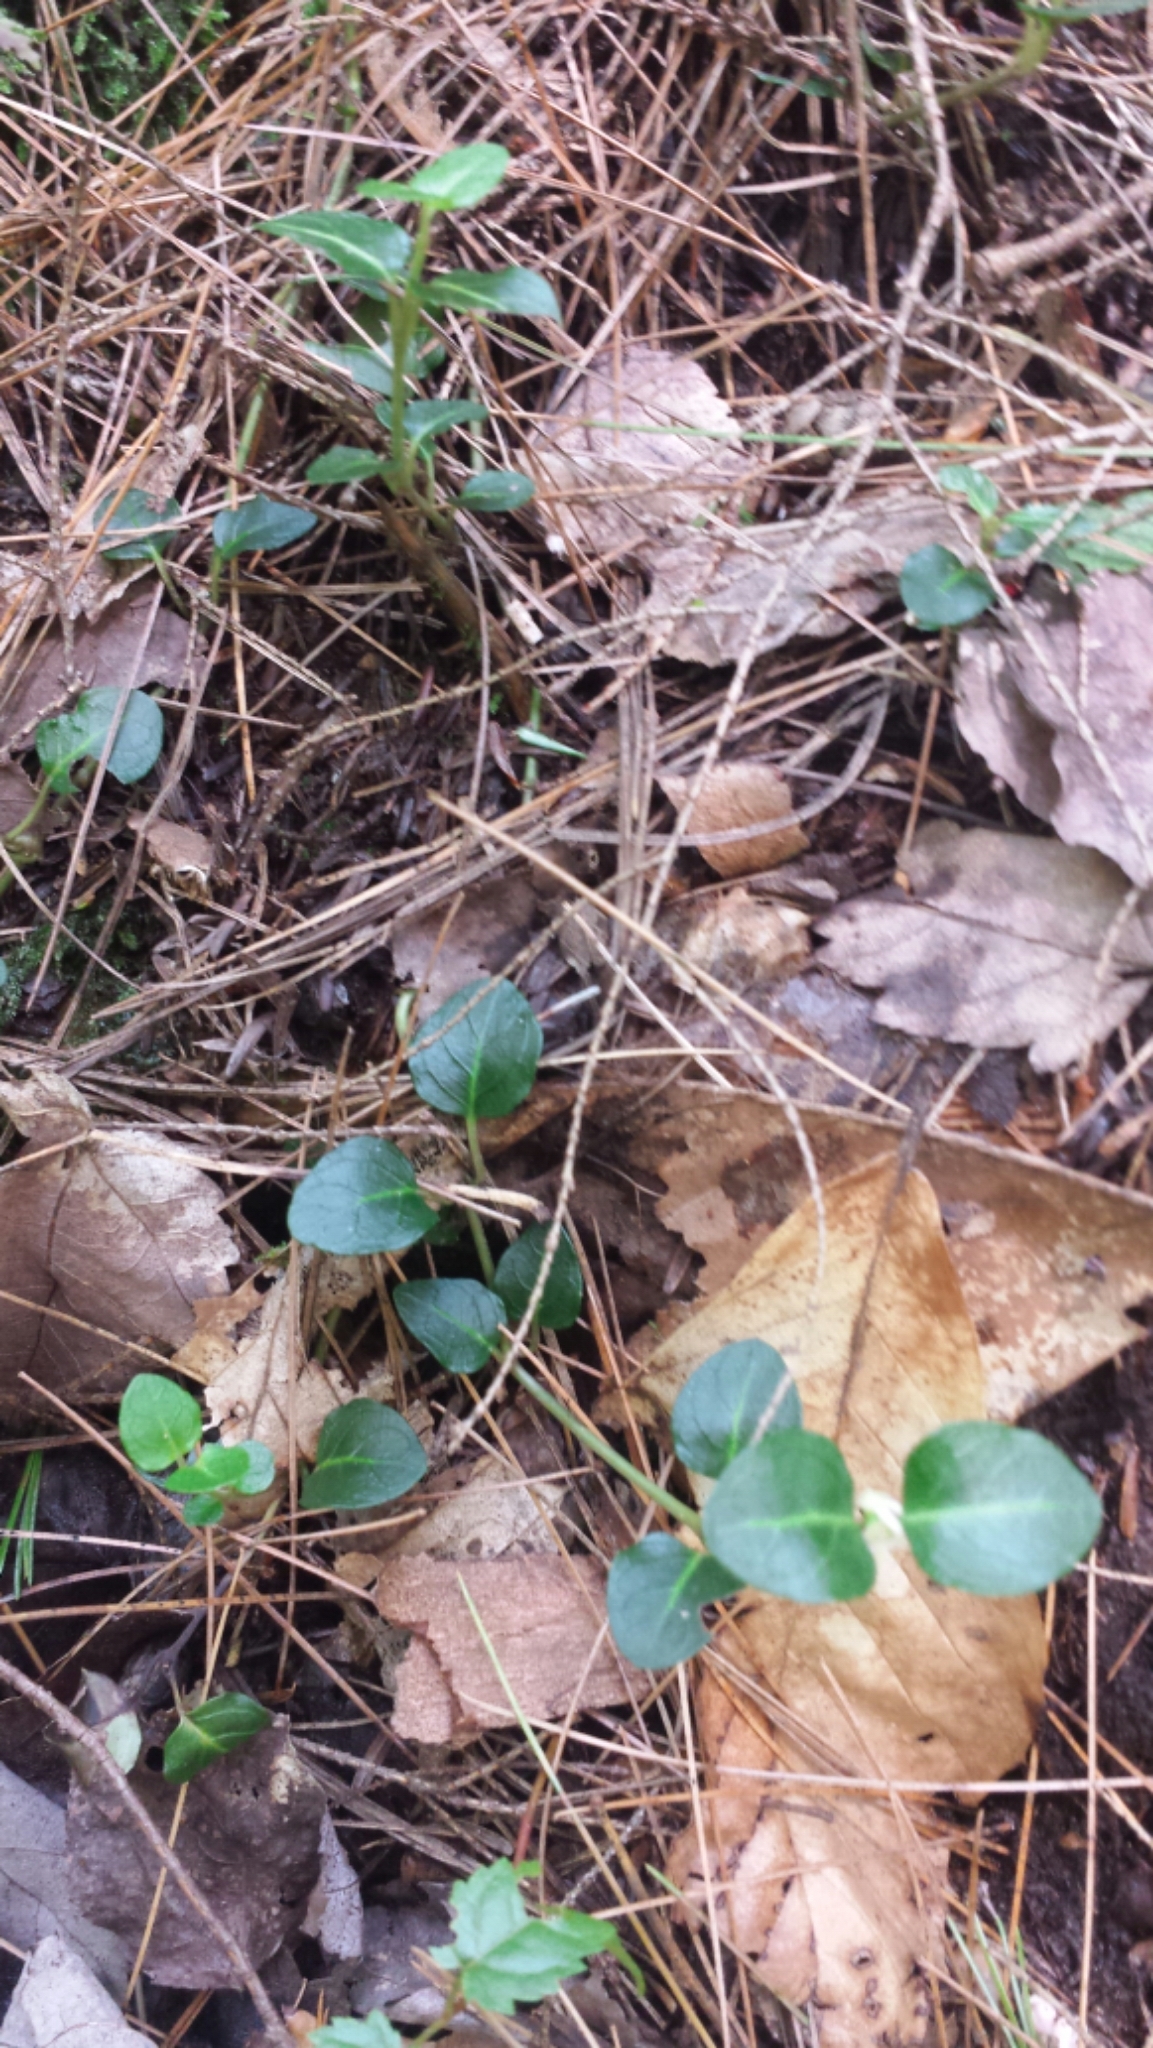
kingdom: Plantae
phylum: Tracheophyta
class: Magnoliopsida
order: Gentianales
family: Rubiaceae
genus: Mitchella
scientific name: Mitchella repens
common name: Partridge-berry
